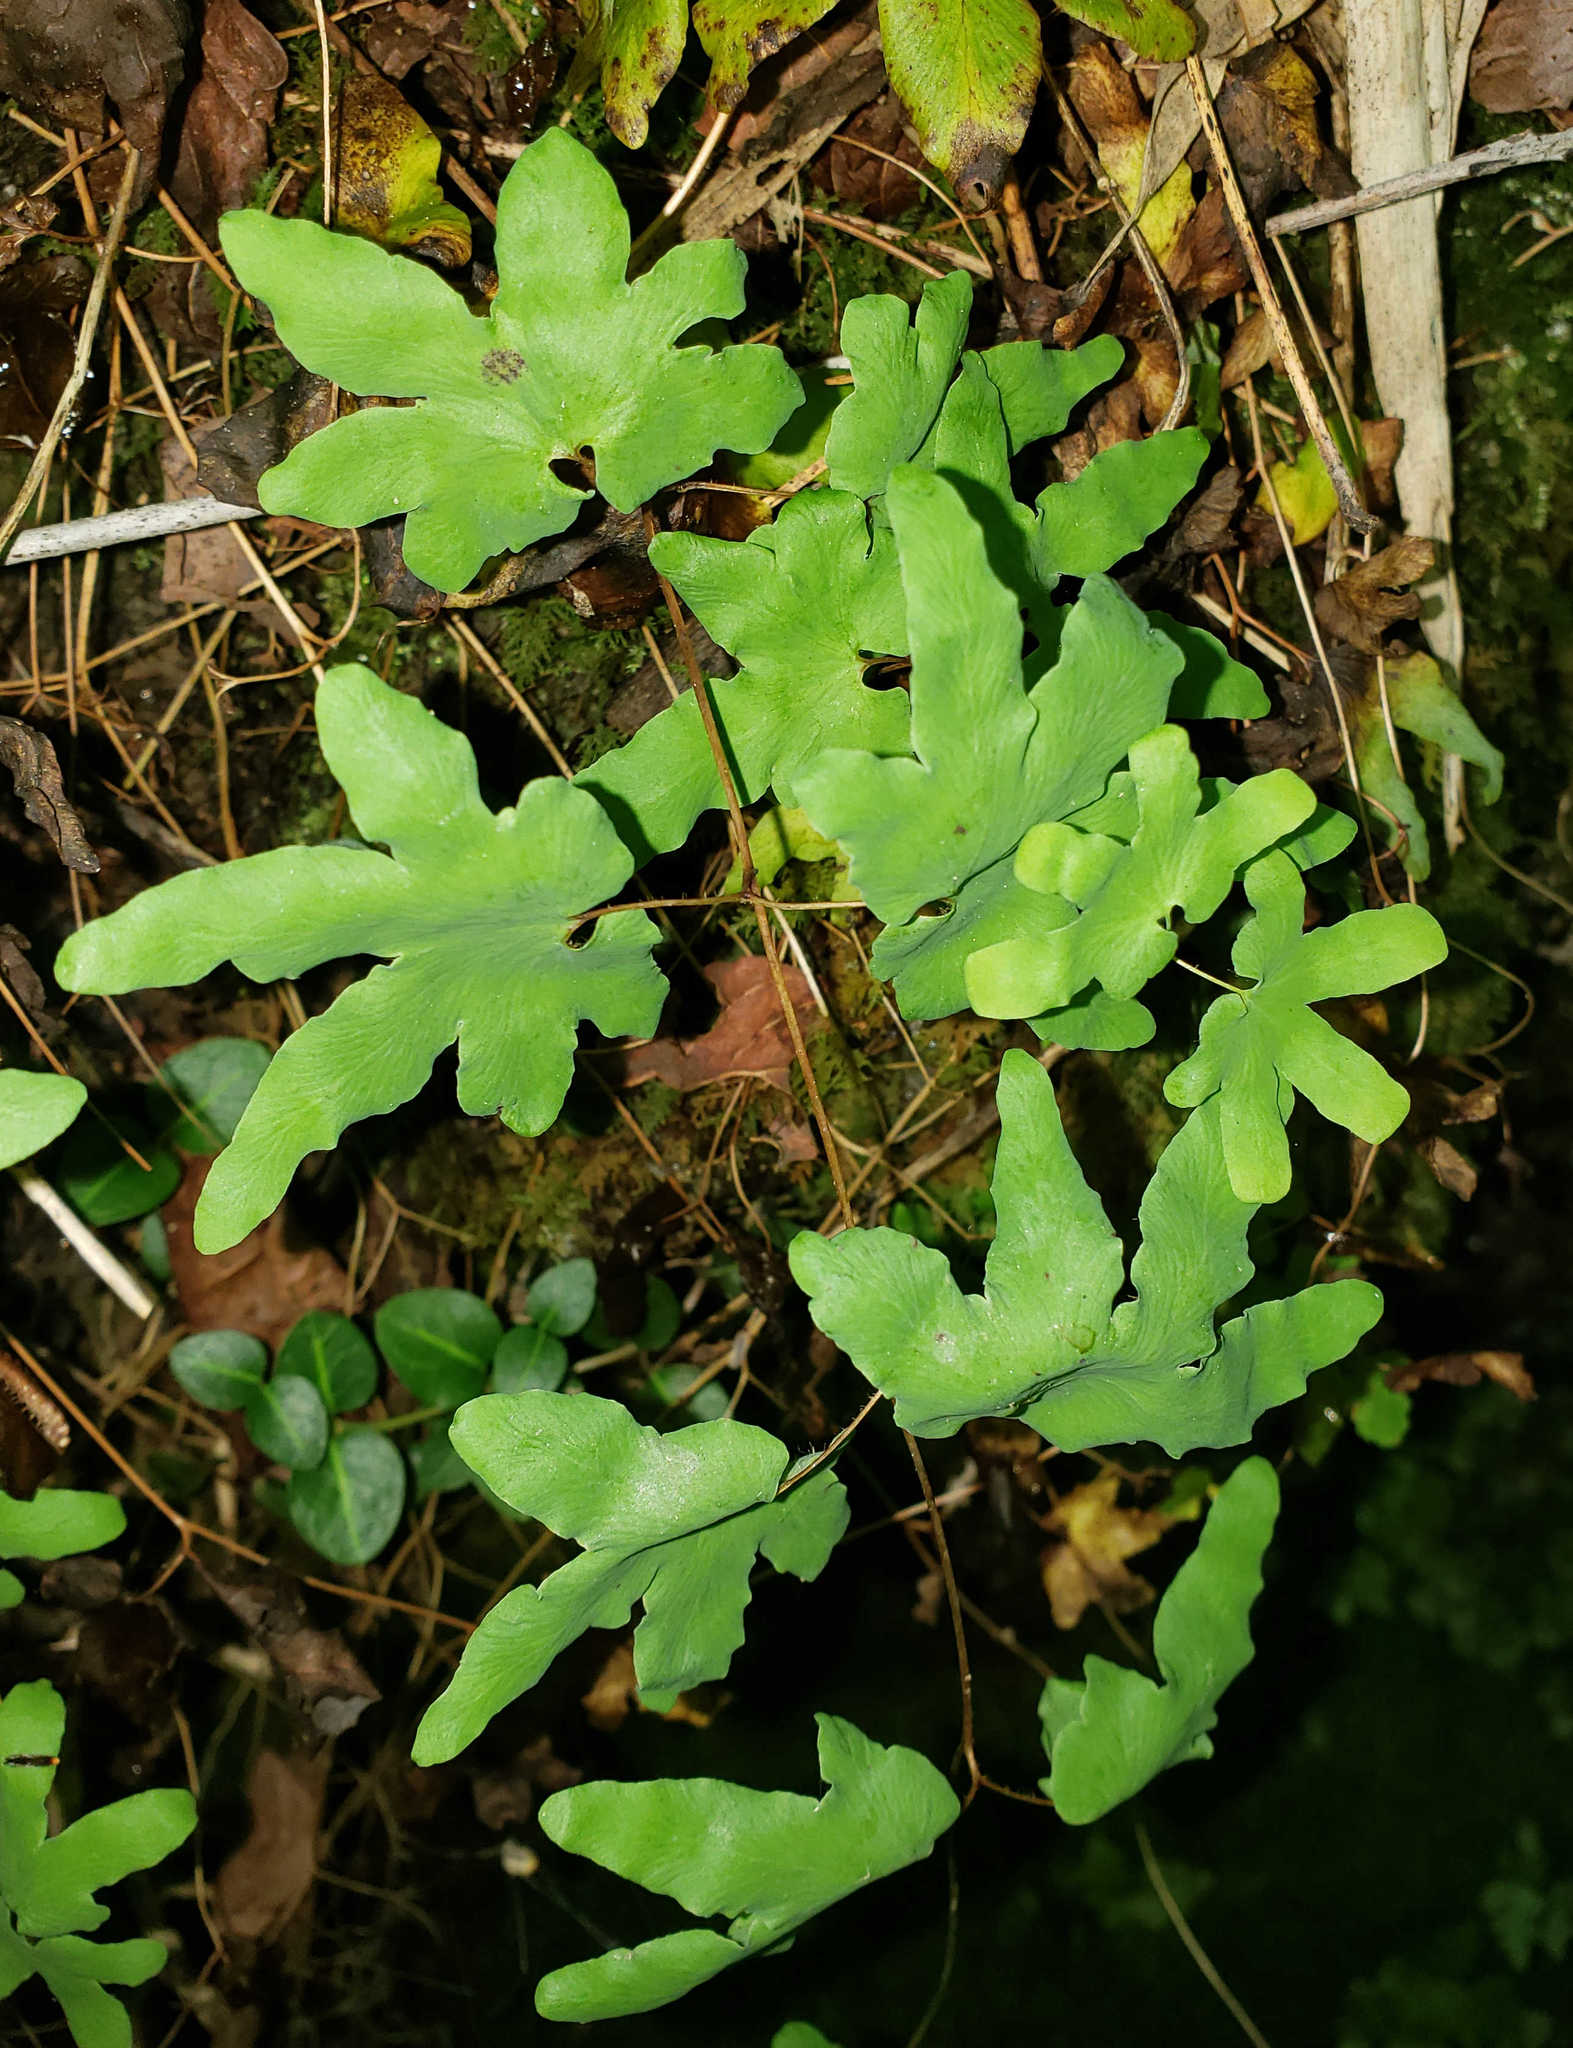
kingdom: Plantae
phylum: Tracheophyta
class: Polypodiopsida
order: Schizaeales
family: Lygodiaceae
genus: Lygodium
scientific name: Lygodium palmatum
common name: American climbing fern
